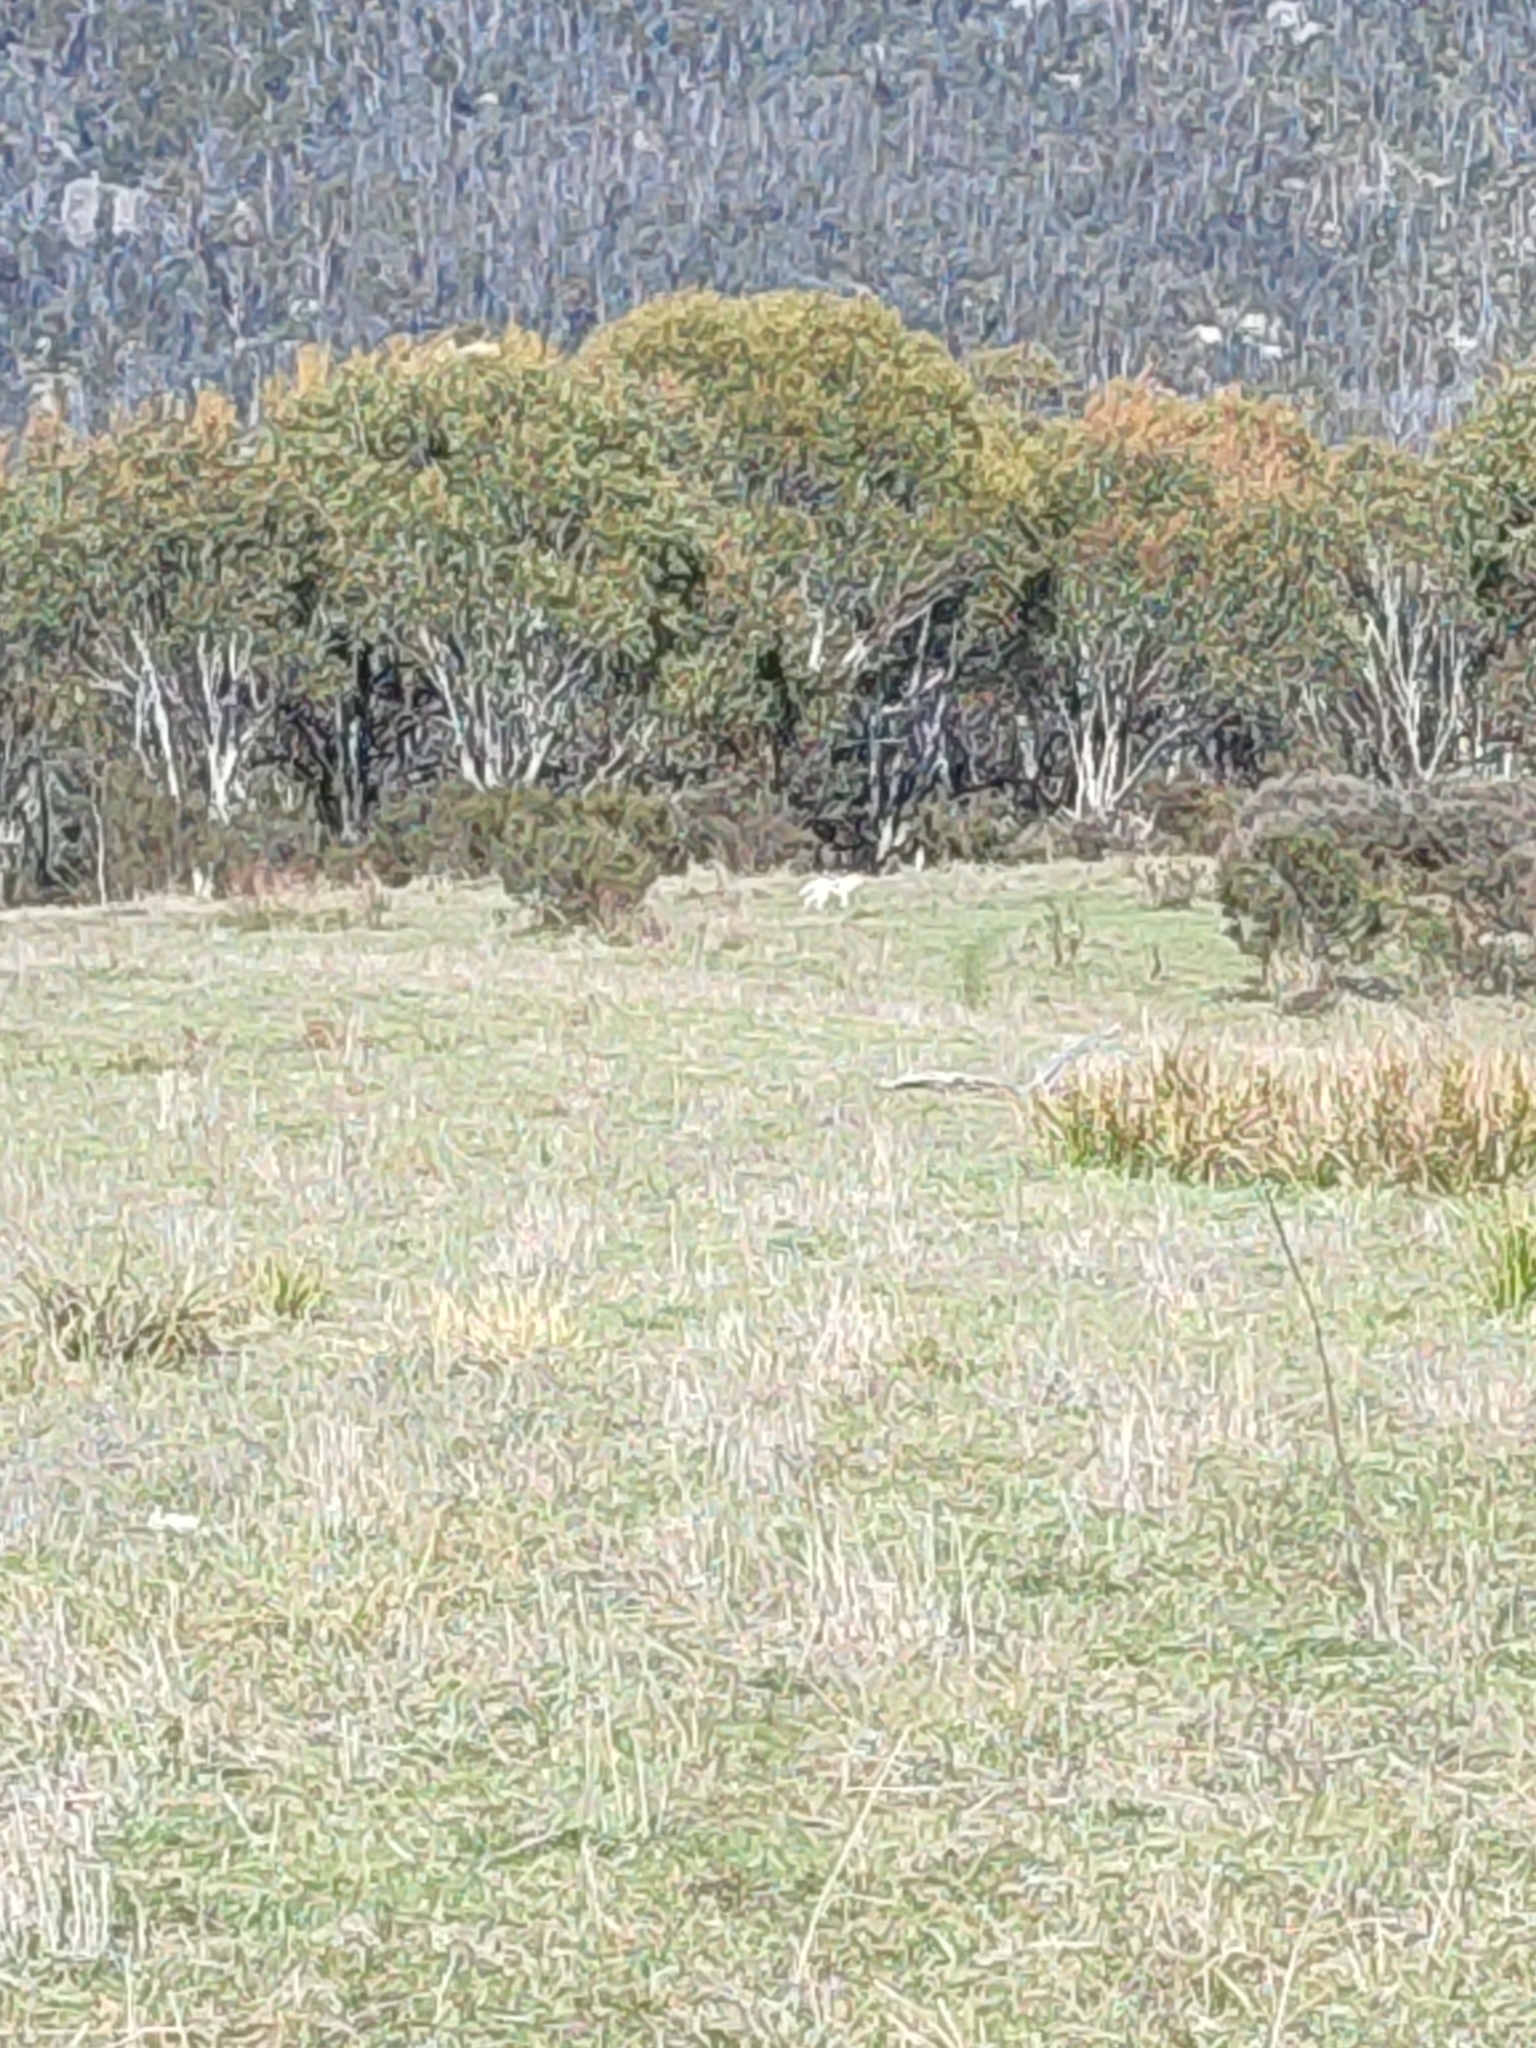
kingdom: Animalia
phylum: Chordata
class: Mammalia
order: Carnivora
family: Canidae
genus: Canis
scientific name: Canis lupus
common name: Gray wolf
